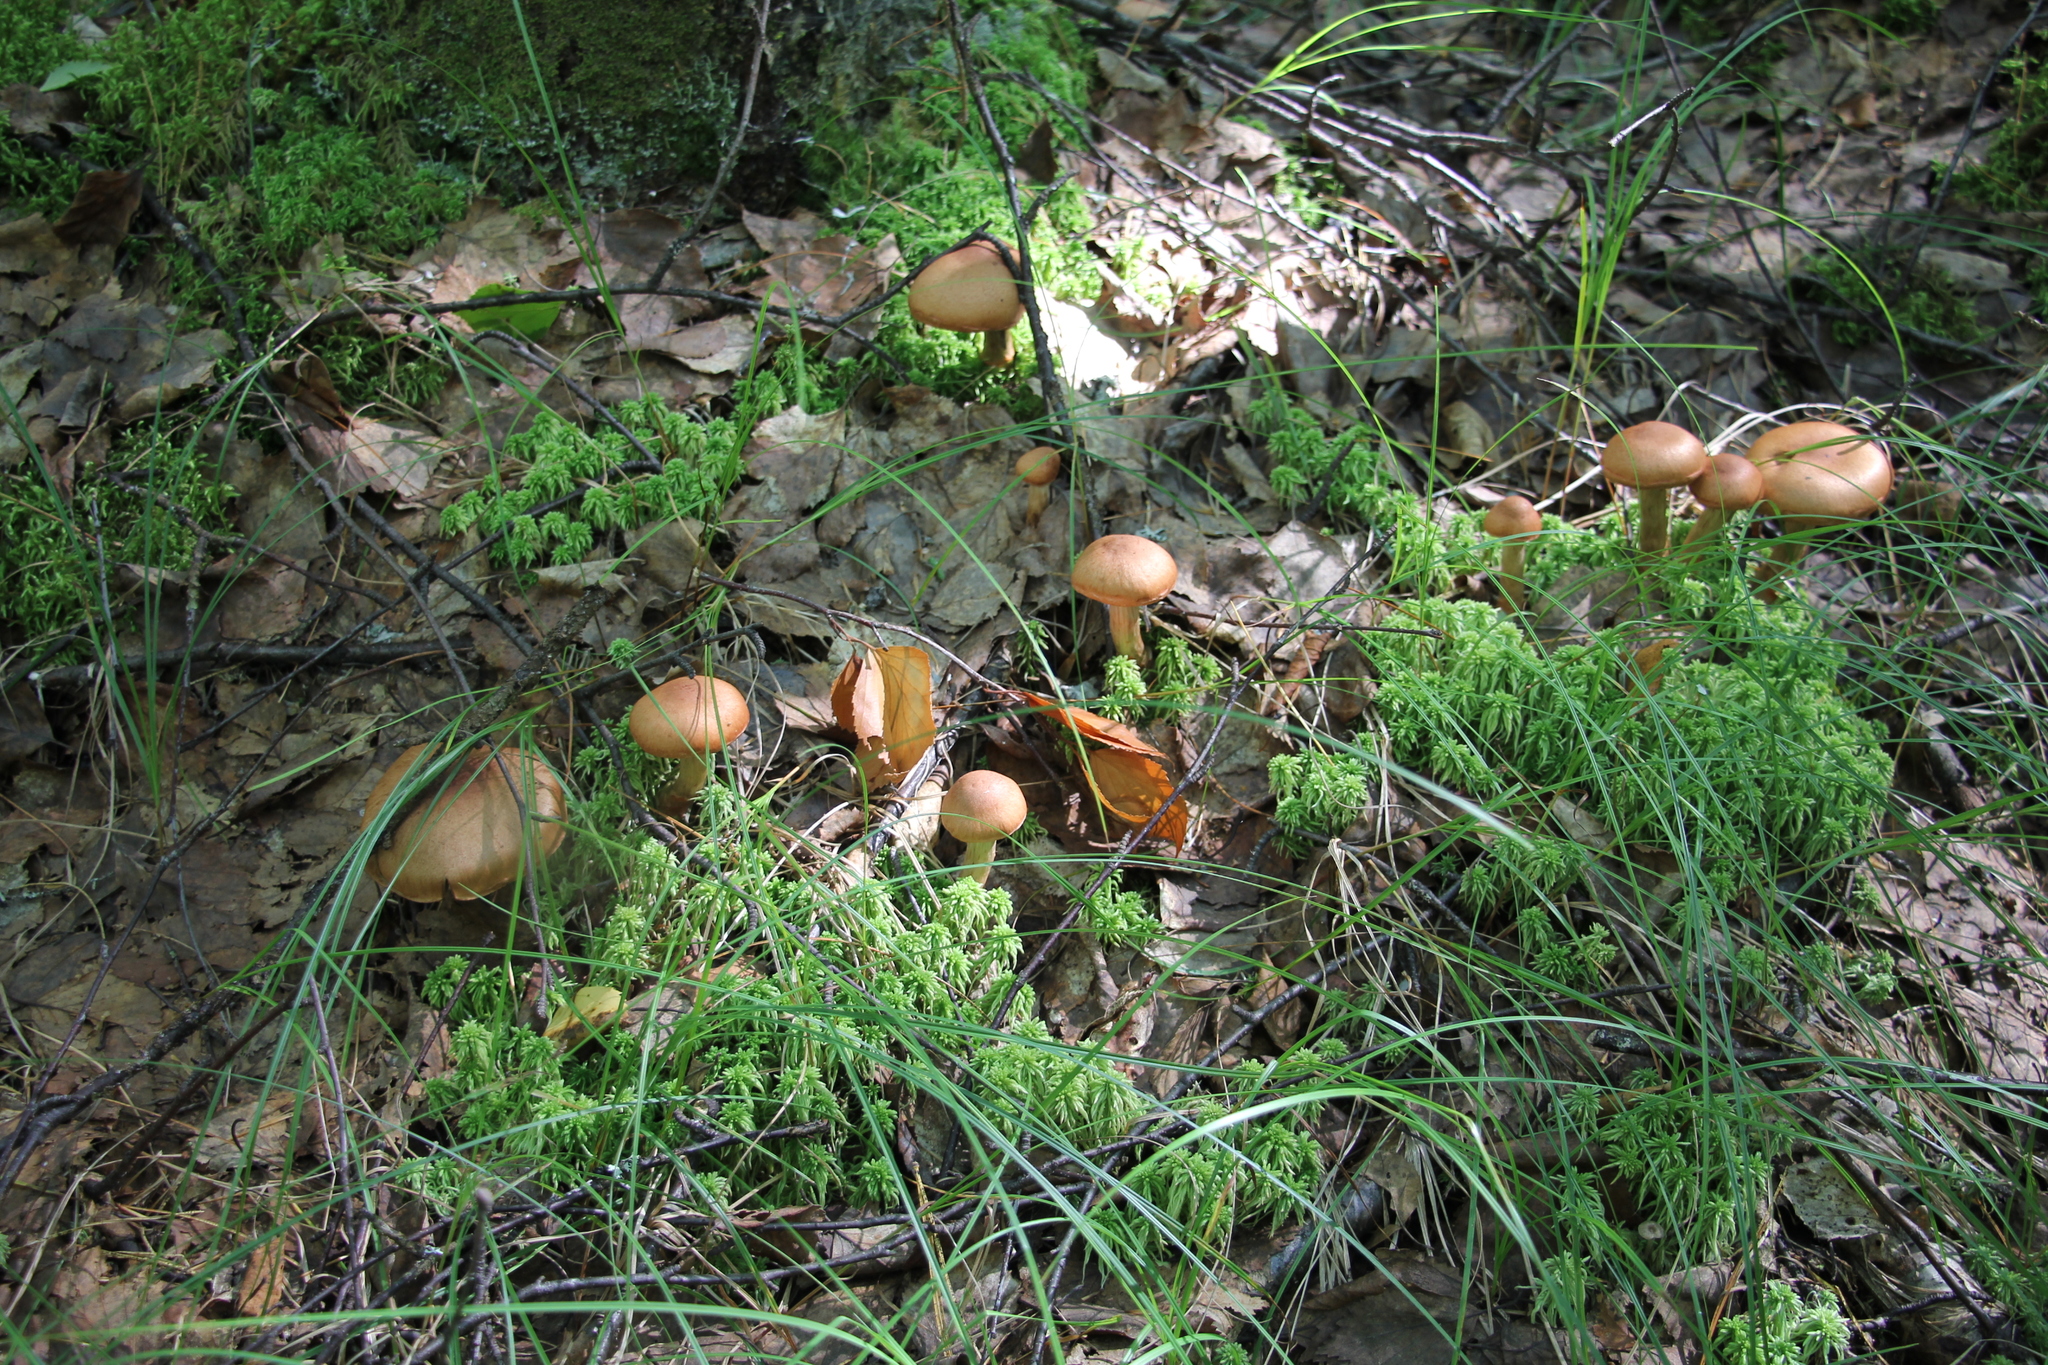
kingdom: Fungi
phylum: Basidiomycota
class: Agaricomycetes
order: Agaricales
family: Cortinariaceae
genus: Cortinarius
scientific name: Cortinarius armillatus
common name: Red banded webcap
